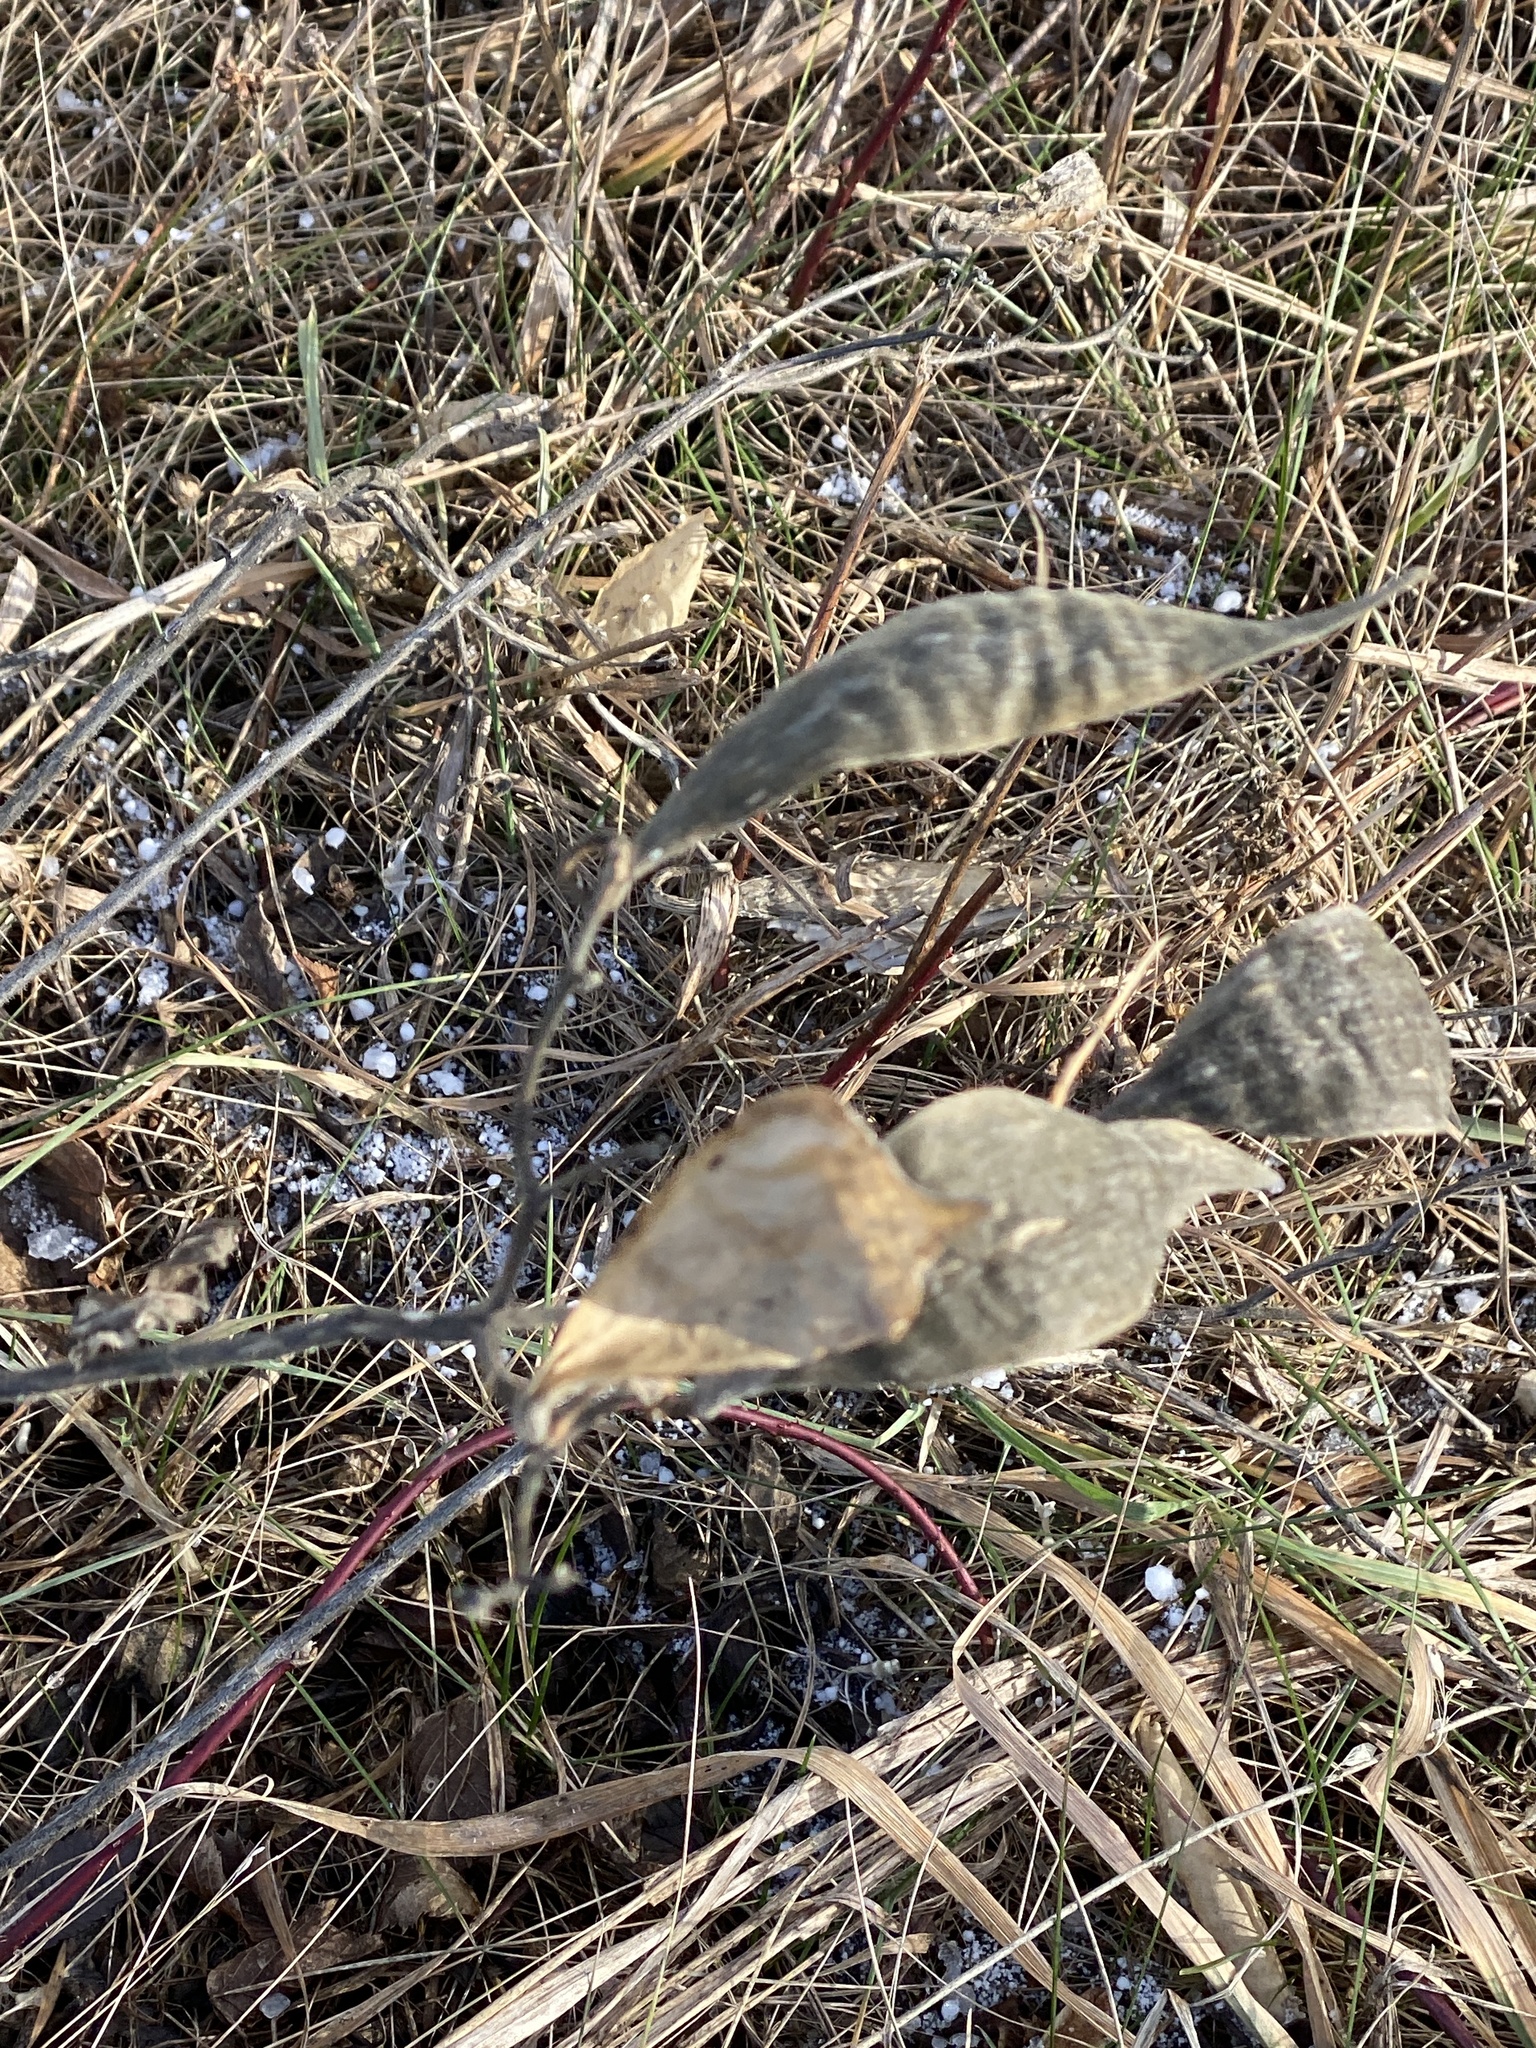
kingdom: Plantae
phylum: Tracheophyta
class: Magnoliopsida
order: Gentianales
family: Apocynaceae
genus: Asclepias
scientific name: Asclepias tuberosa
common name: Butterfly milkweed
